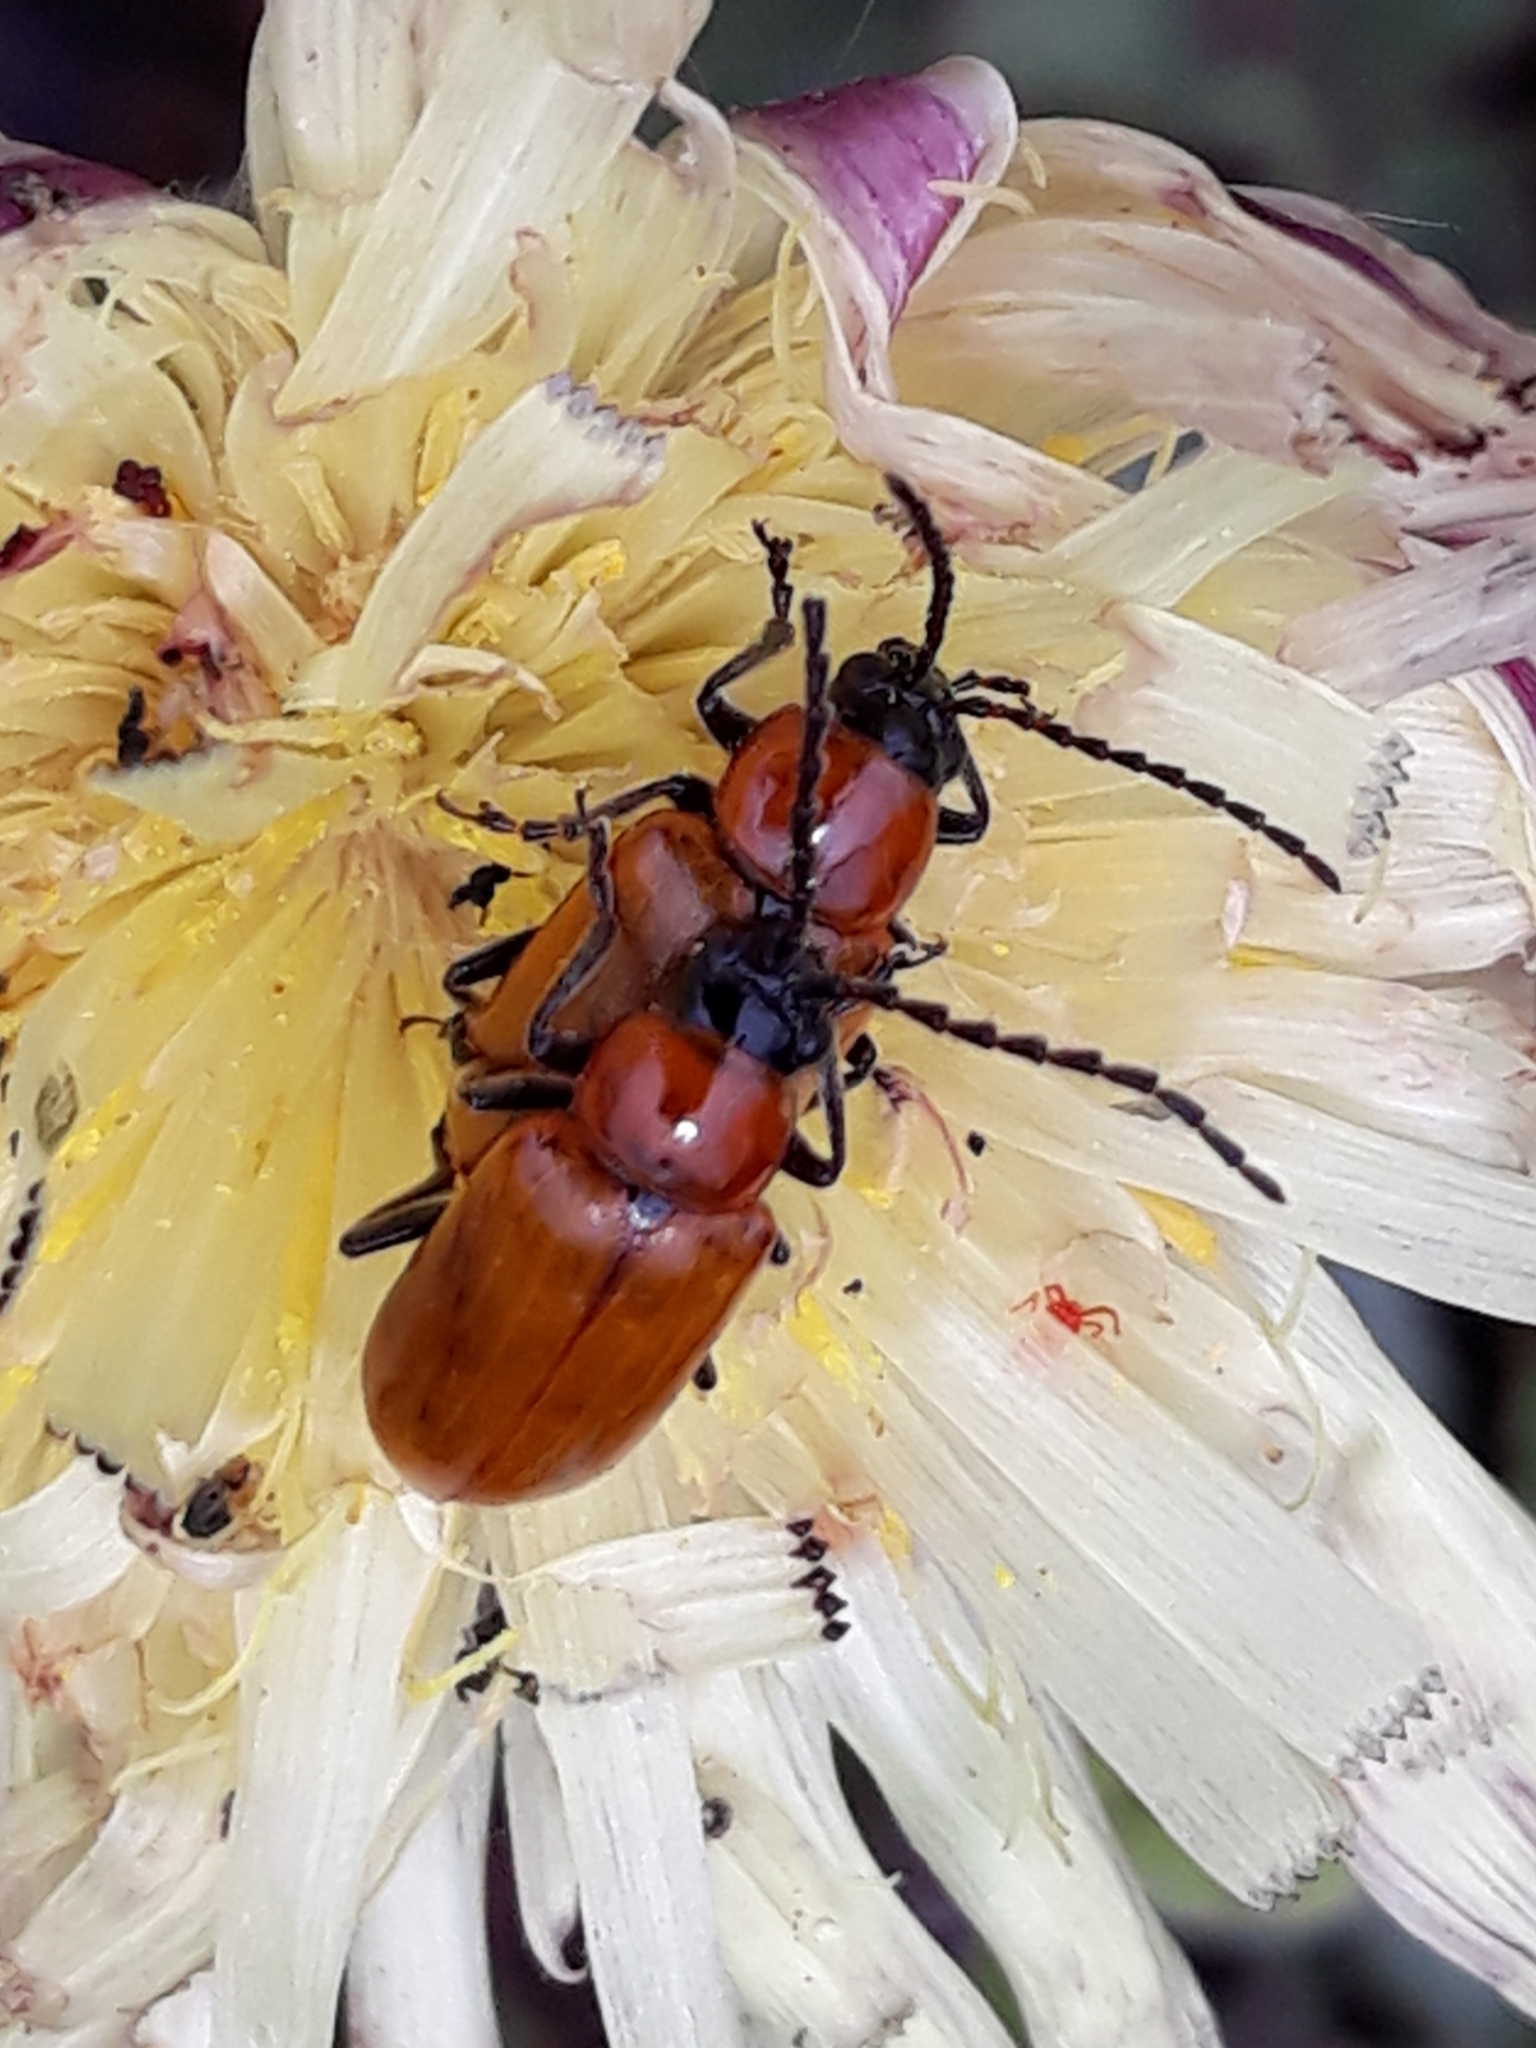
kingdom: Animalia
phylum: Arthropoda
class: Insecta
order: Coleoptera
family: Chrysomelidae
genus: Exosoma
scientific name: Exosoma lusitanicum
